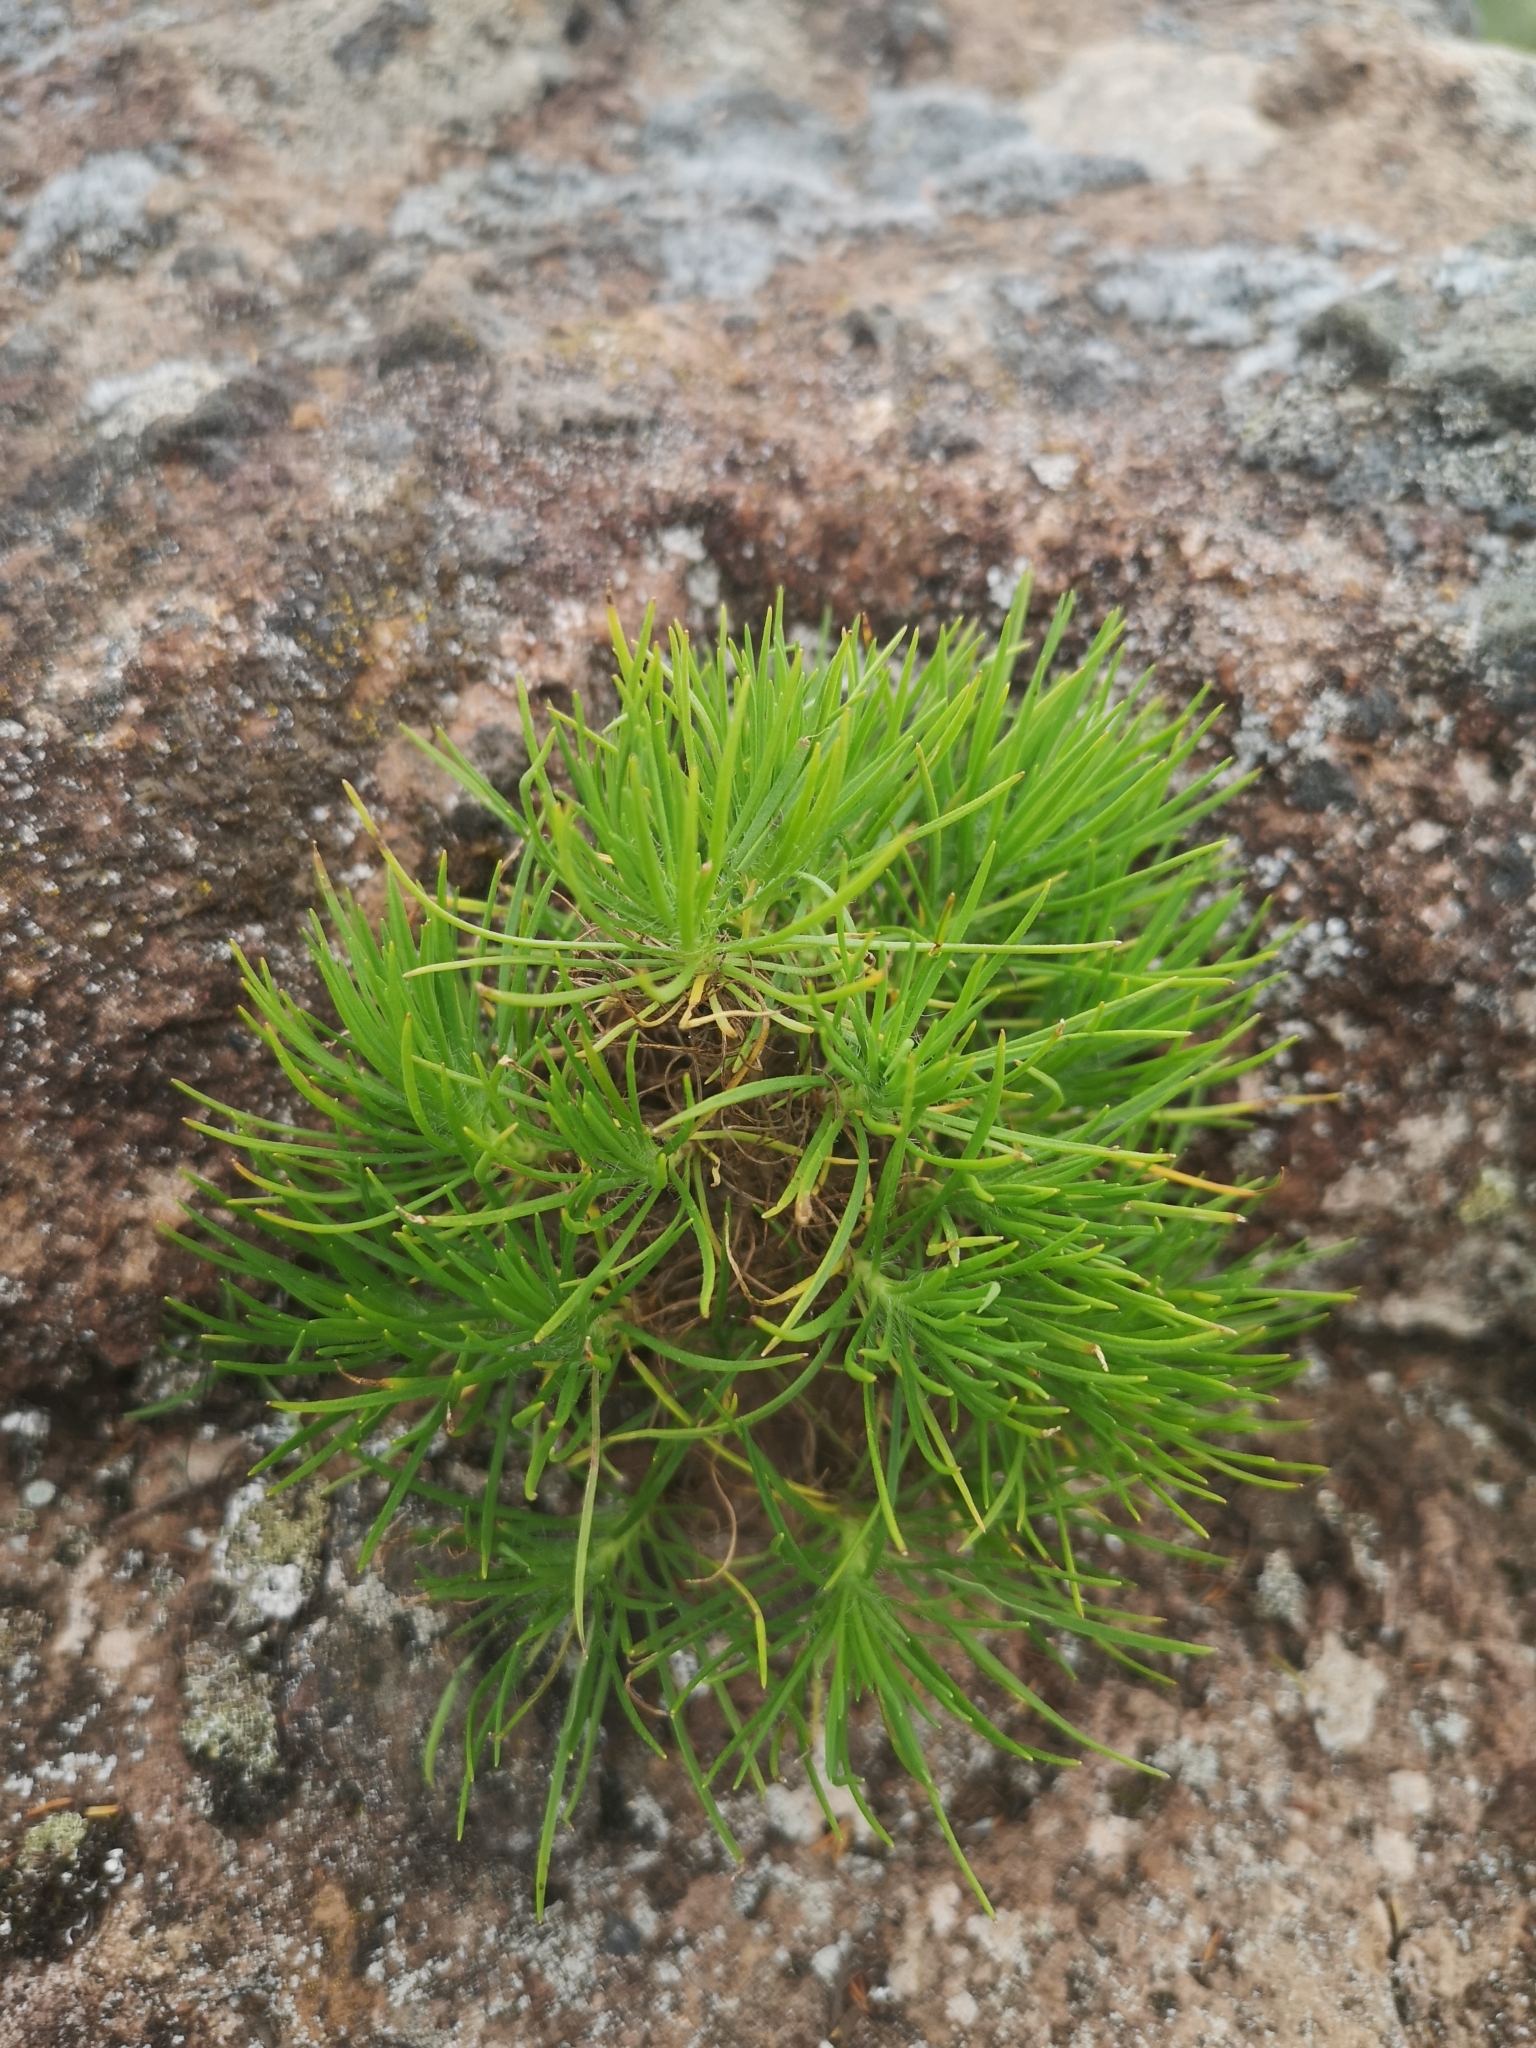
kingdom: Plantae
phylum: Tracheophyta
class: Magnoliopsida
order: Lamiales
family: Plantaginaceae
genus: Plantago
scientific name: Plantago arborescens
